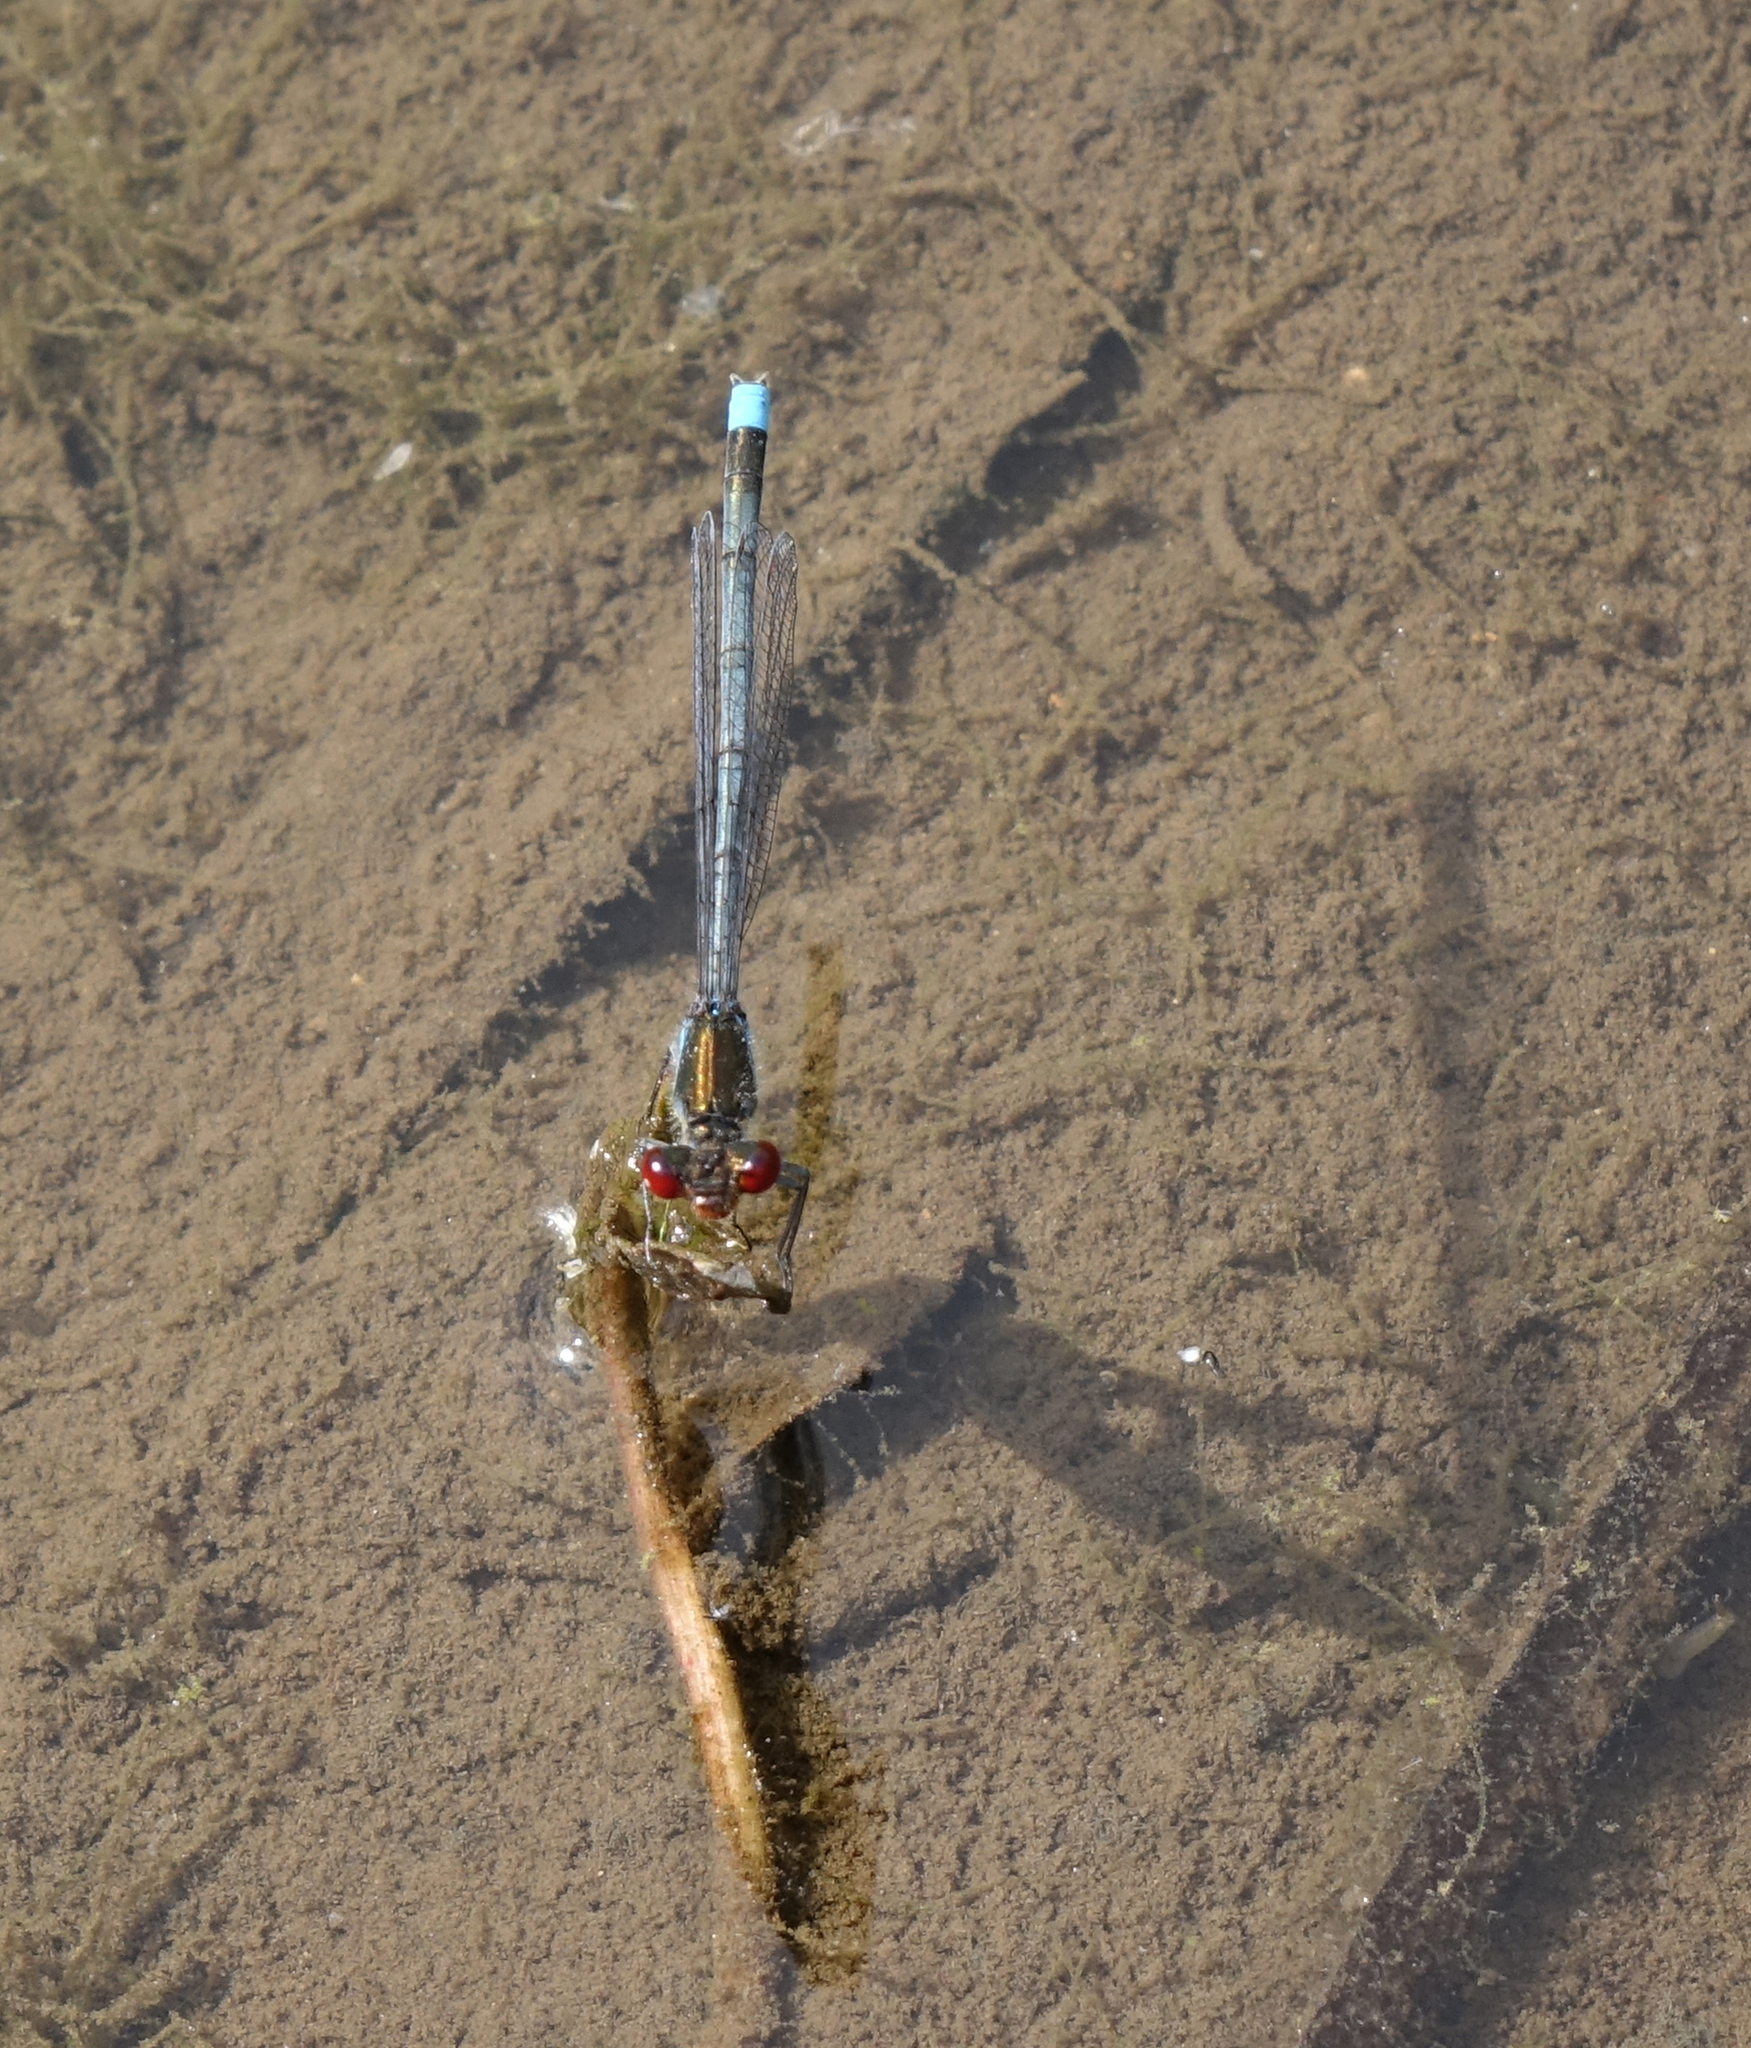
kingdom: Animalia
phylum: Arthropoda
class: Insecta
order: Odonata
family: Coenagrionidae
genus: Erythromma
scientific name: Erythromma najas
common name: Red-eyed damselfly
